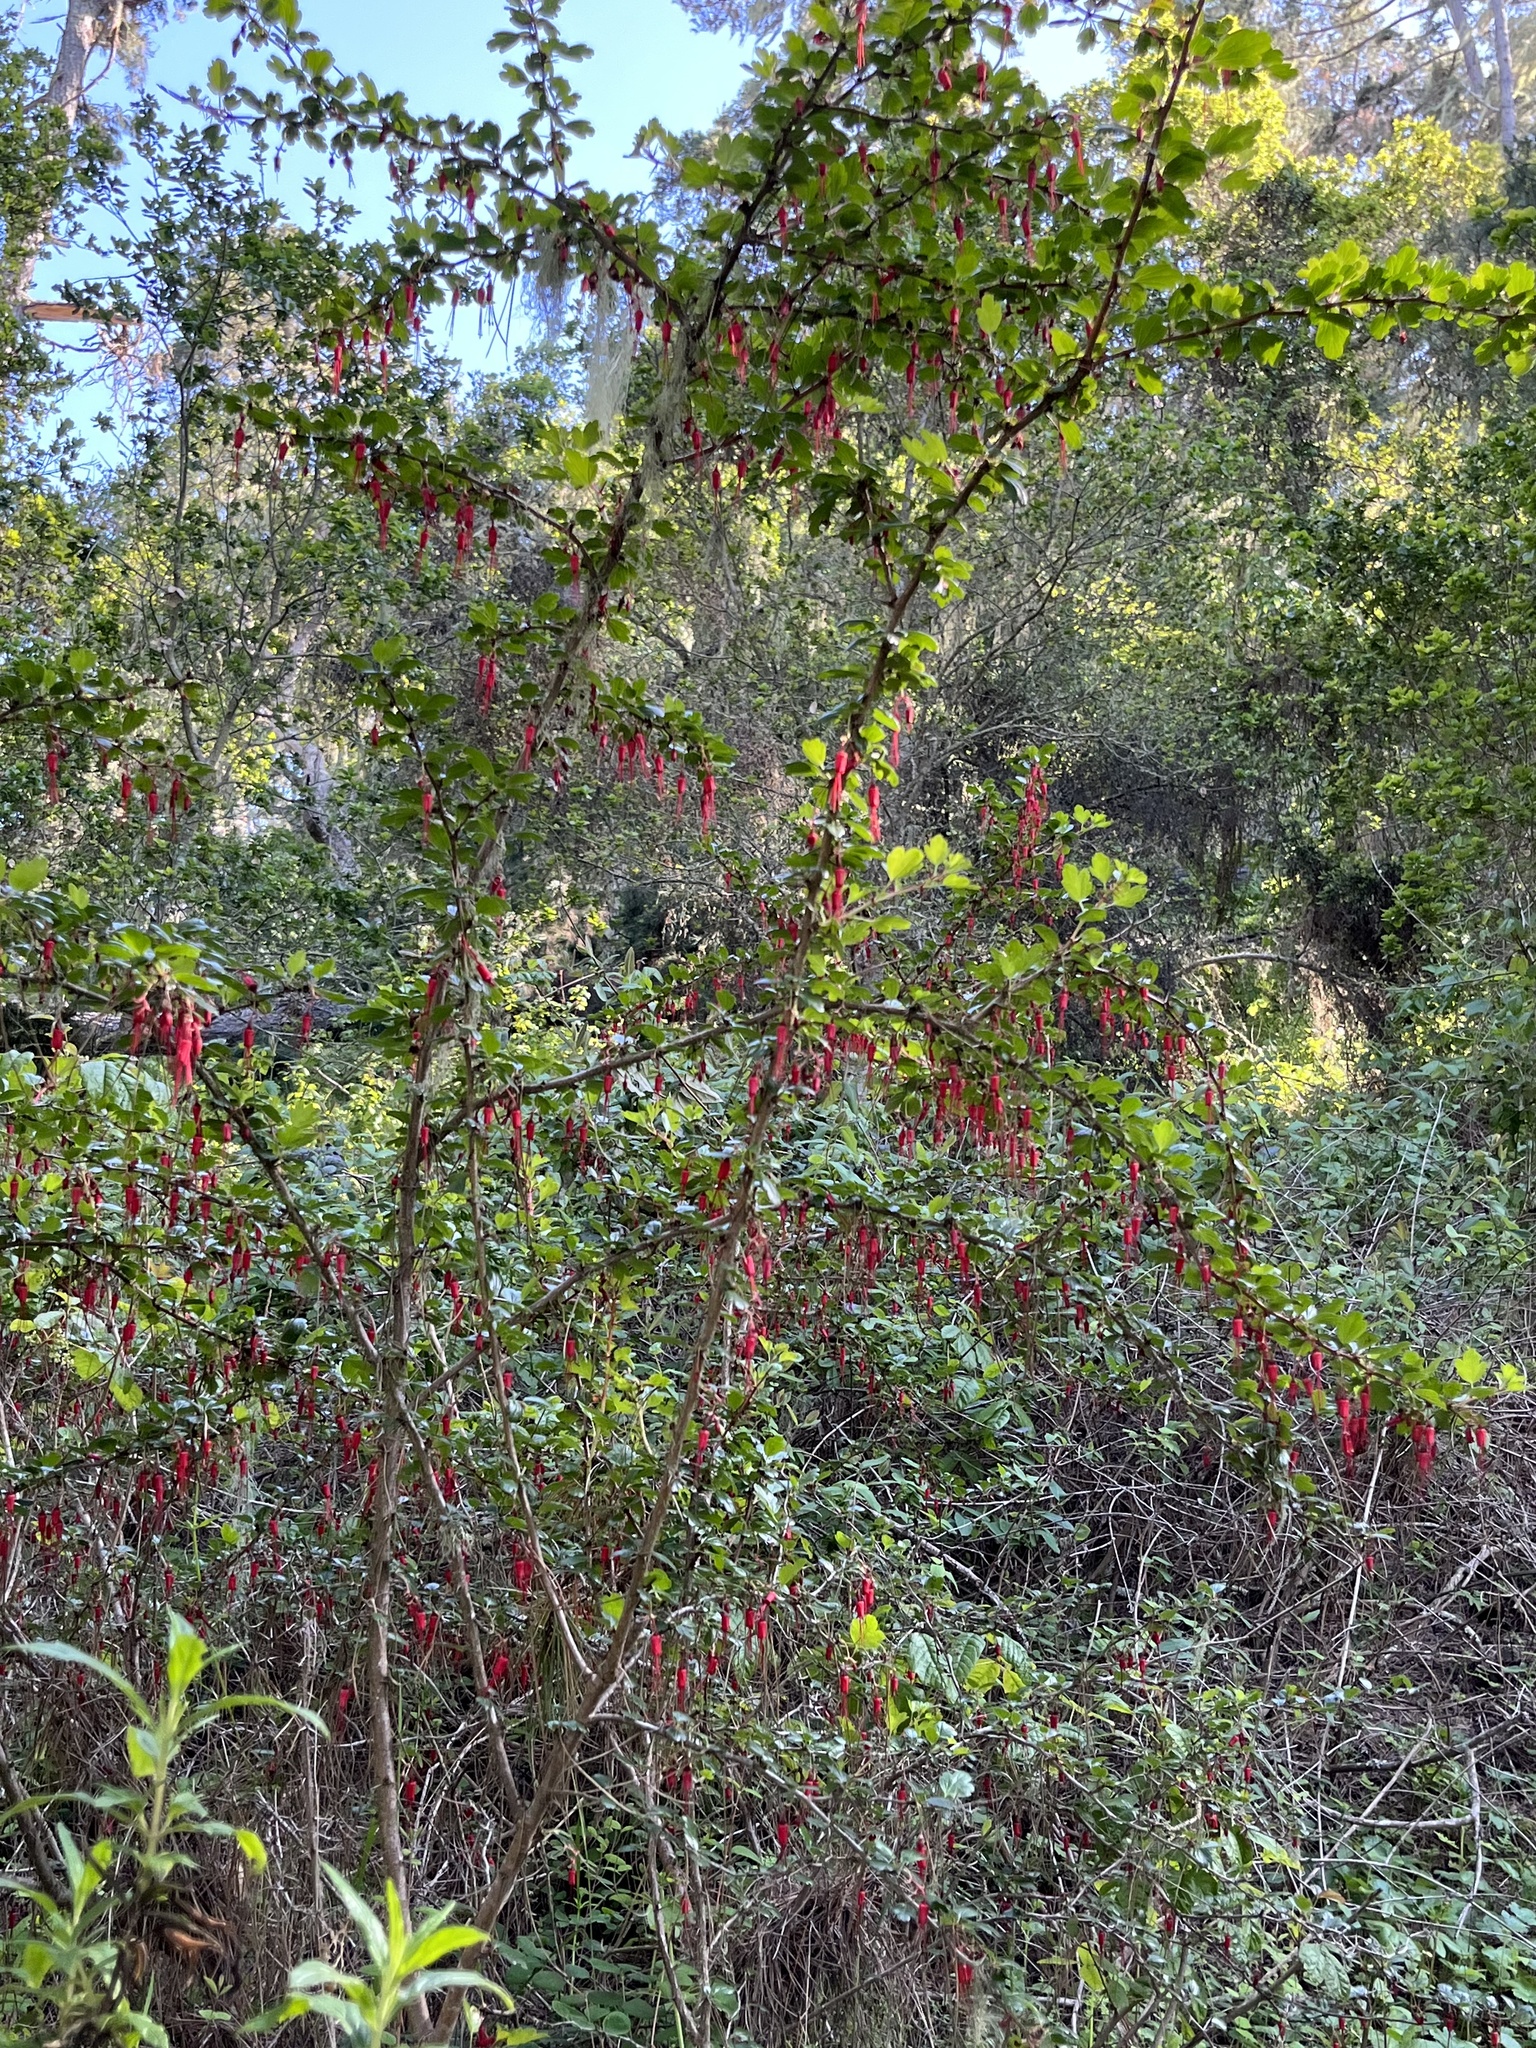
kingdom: Plantae
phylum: Tracheophyta
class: Magnoliopsida
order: Saxifragales
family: Grossulariaceae
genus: Ribes
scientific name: Ribes speciosum
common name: Fuchsia-flower gooseberry
